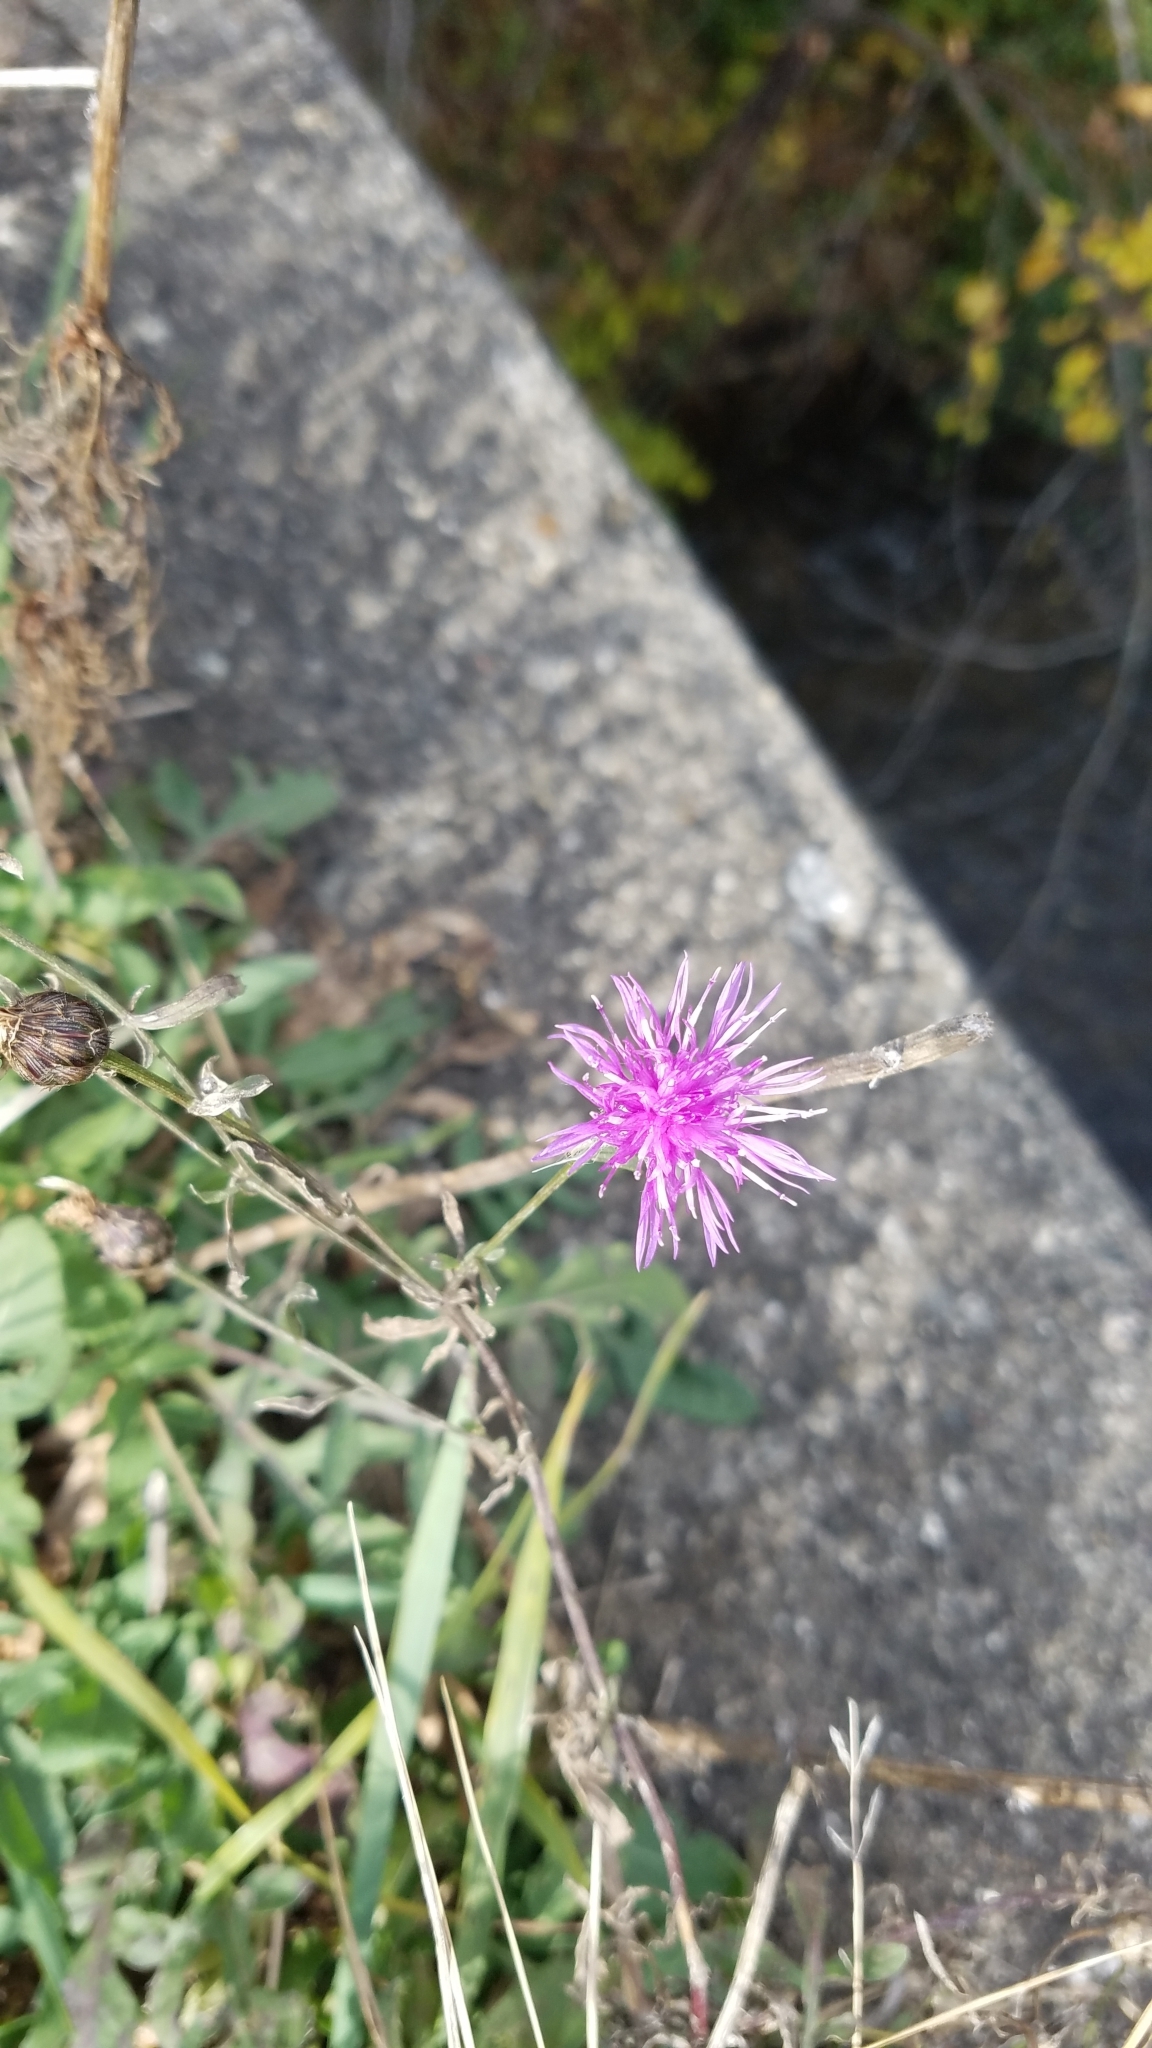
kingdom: Plantae
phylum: Tracheophyta
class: Magnoliopsida
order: Asterales
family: Asteraceae
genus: Centaurea
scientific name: Centaurea stoebe
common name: Spotted knapweed
